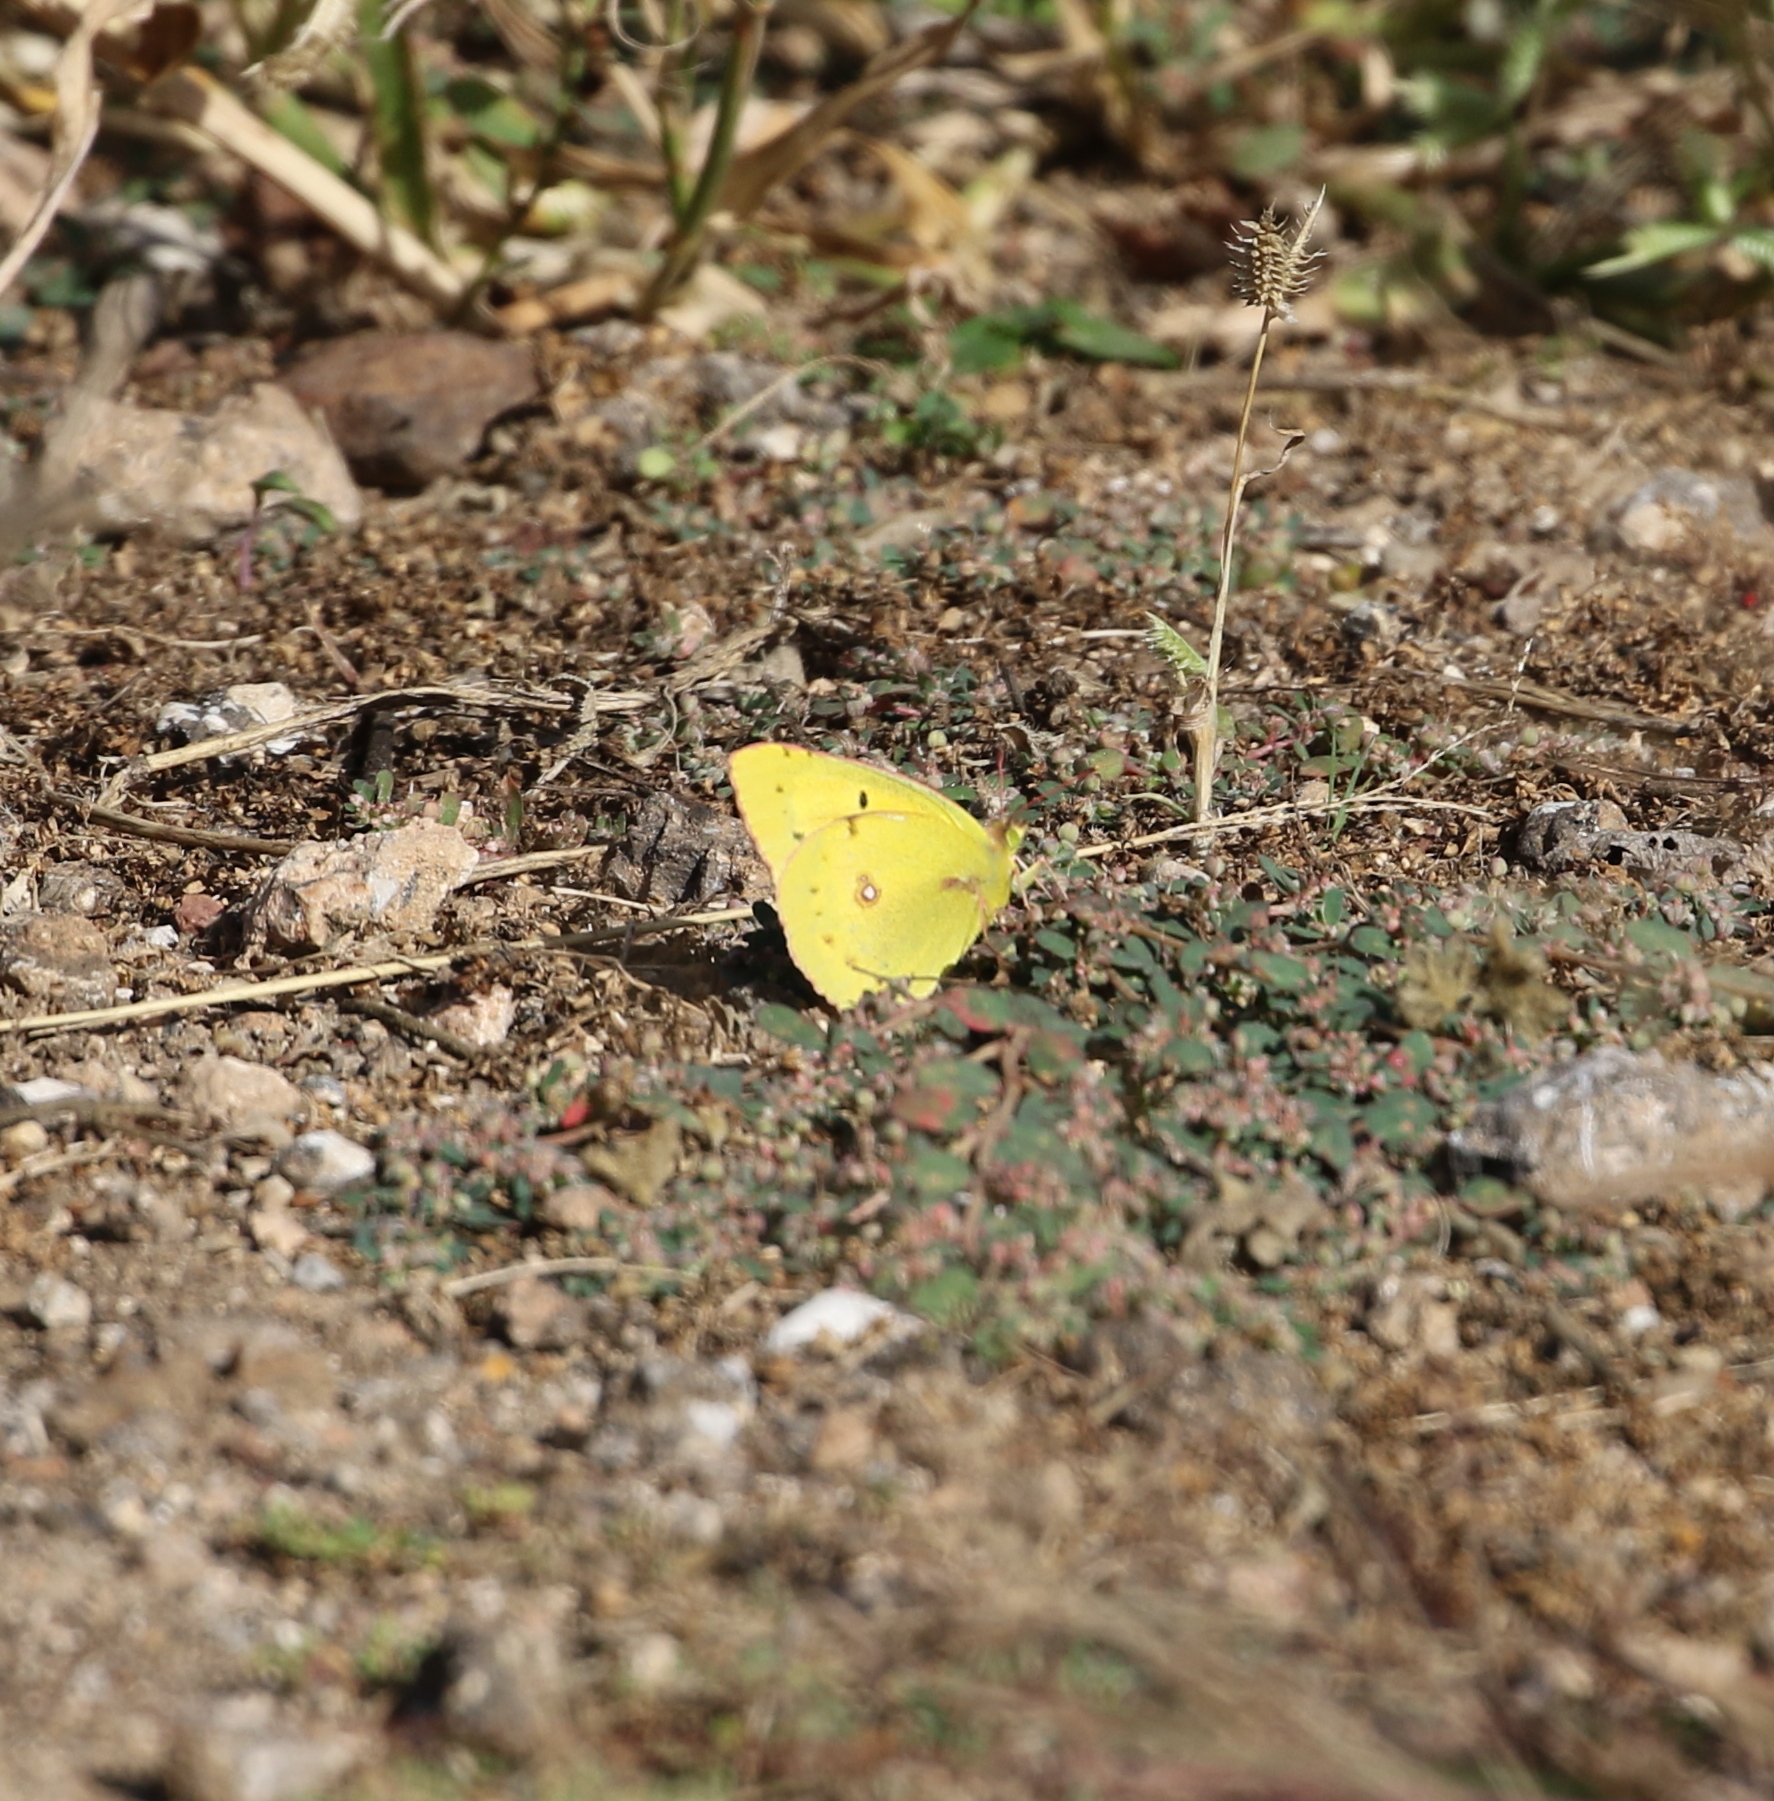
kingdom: Animalia
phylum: Arthropoda
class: Insecta
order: Lepidoptera
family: Pieridae
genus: Phoebis
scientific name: Phoebis sennae
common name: Cloudless sulphur
